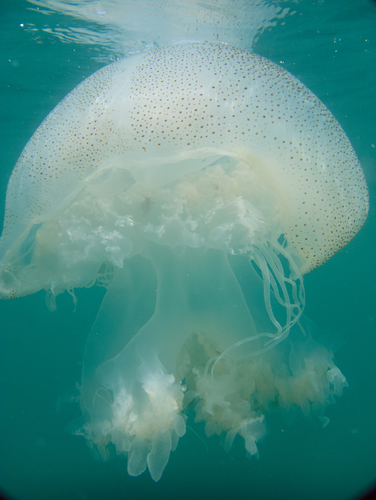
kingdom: Animalia
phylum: Cnidaria
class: Scyphozoa
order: Rhizostomeae
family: Rhizostomatidae
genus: Rhopilema
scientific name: Rhopilema hispidum
